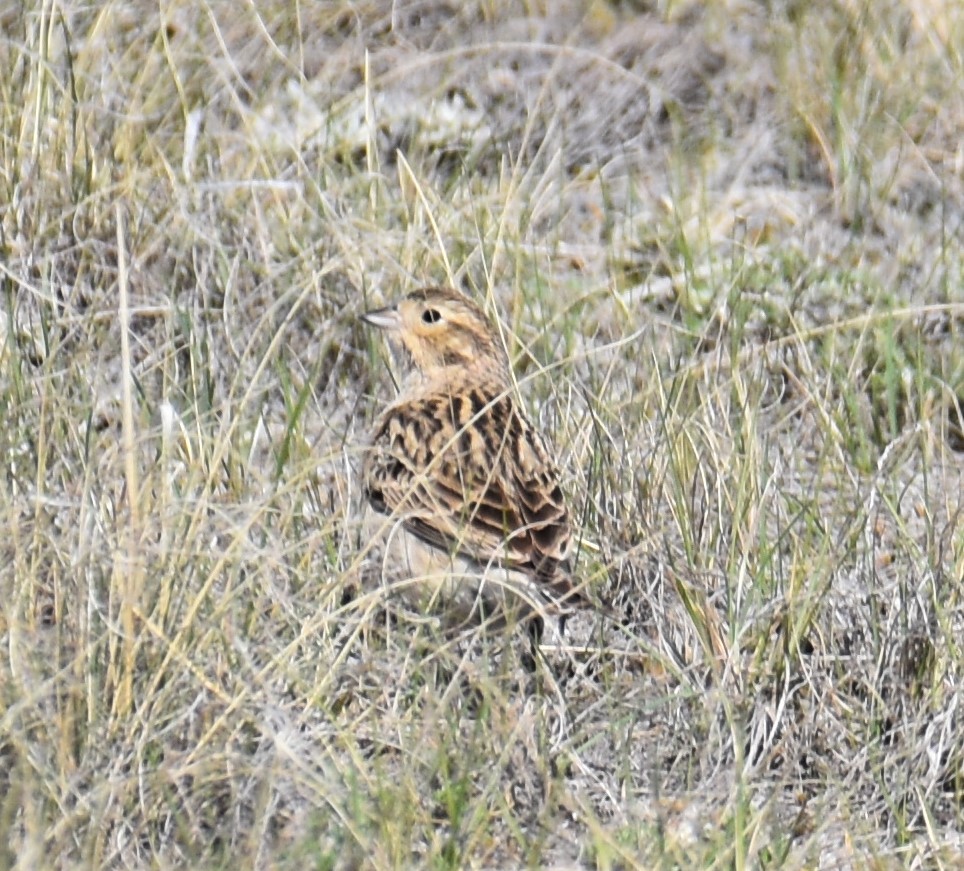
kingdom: Animalia
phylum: Chordata
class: Aves
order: Passeriformes
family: Calcariidae
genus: Calcarius
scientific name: Calcarius ornatus
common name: Chestnut-collared longspur
